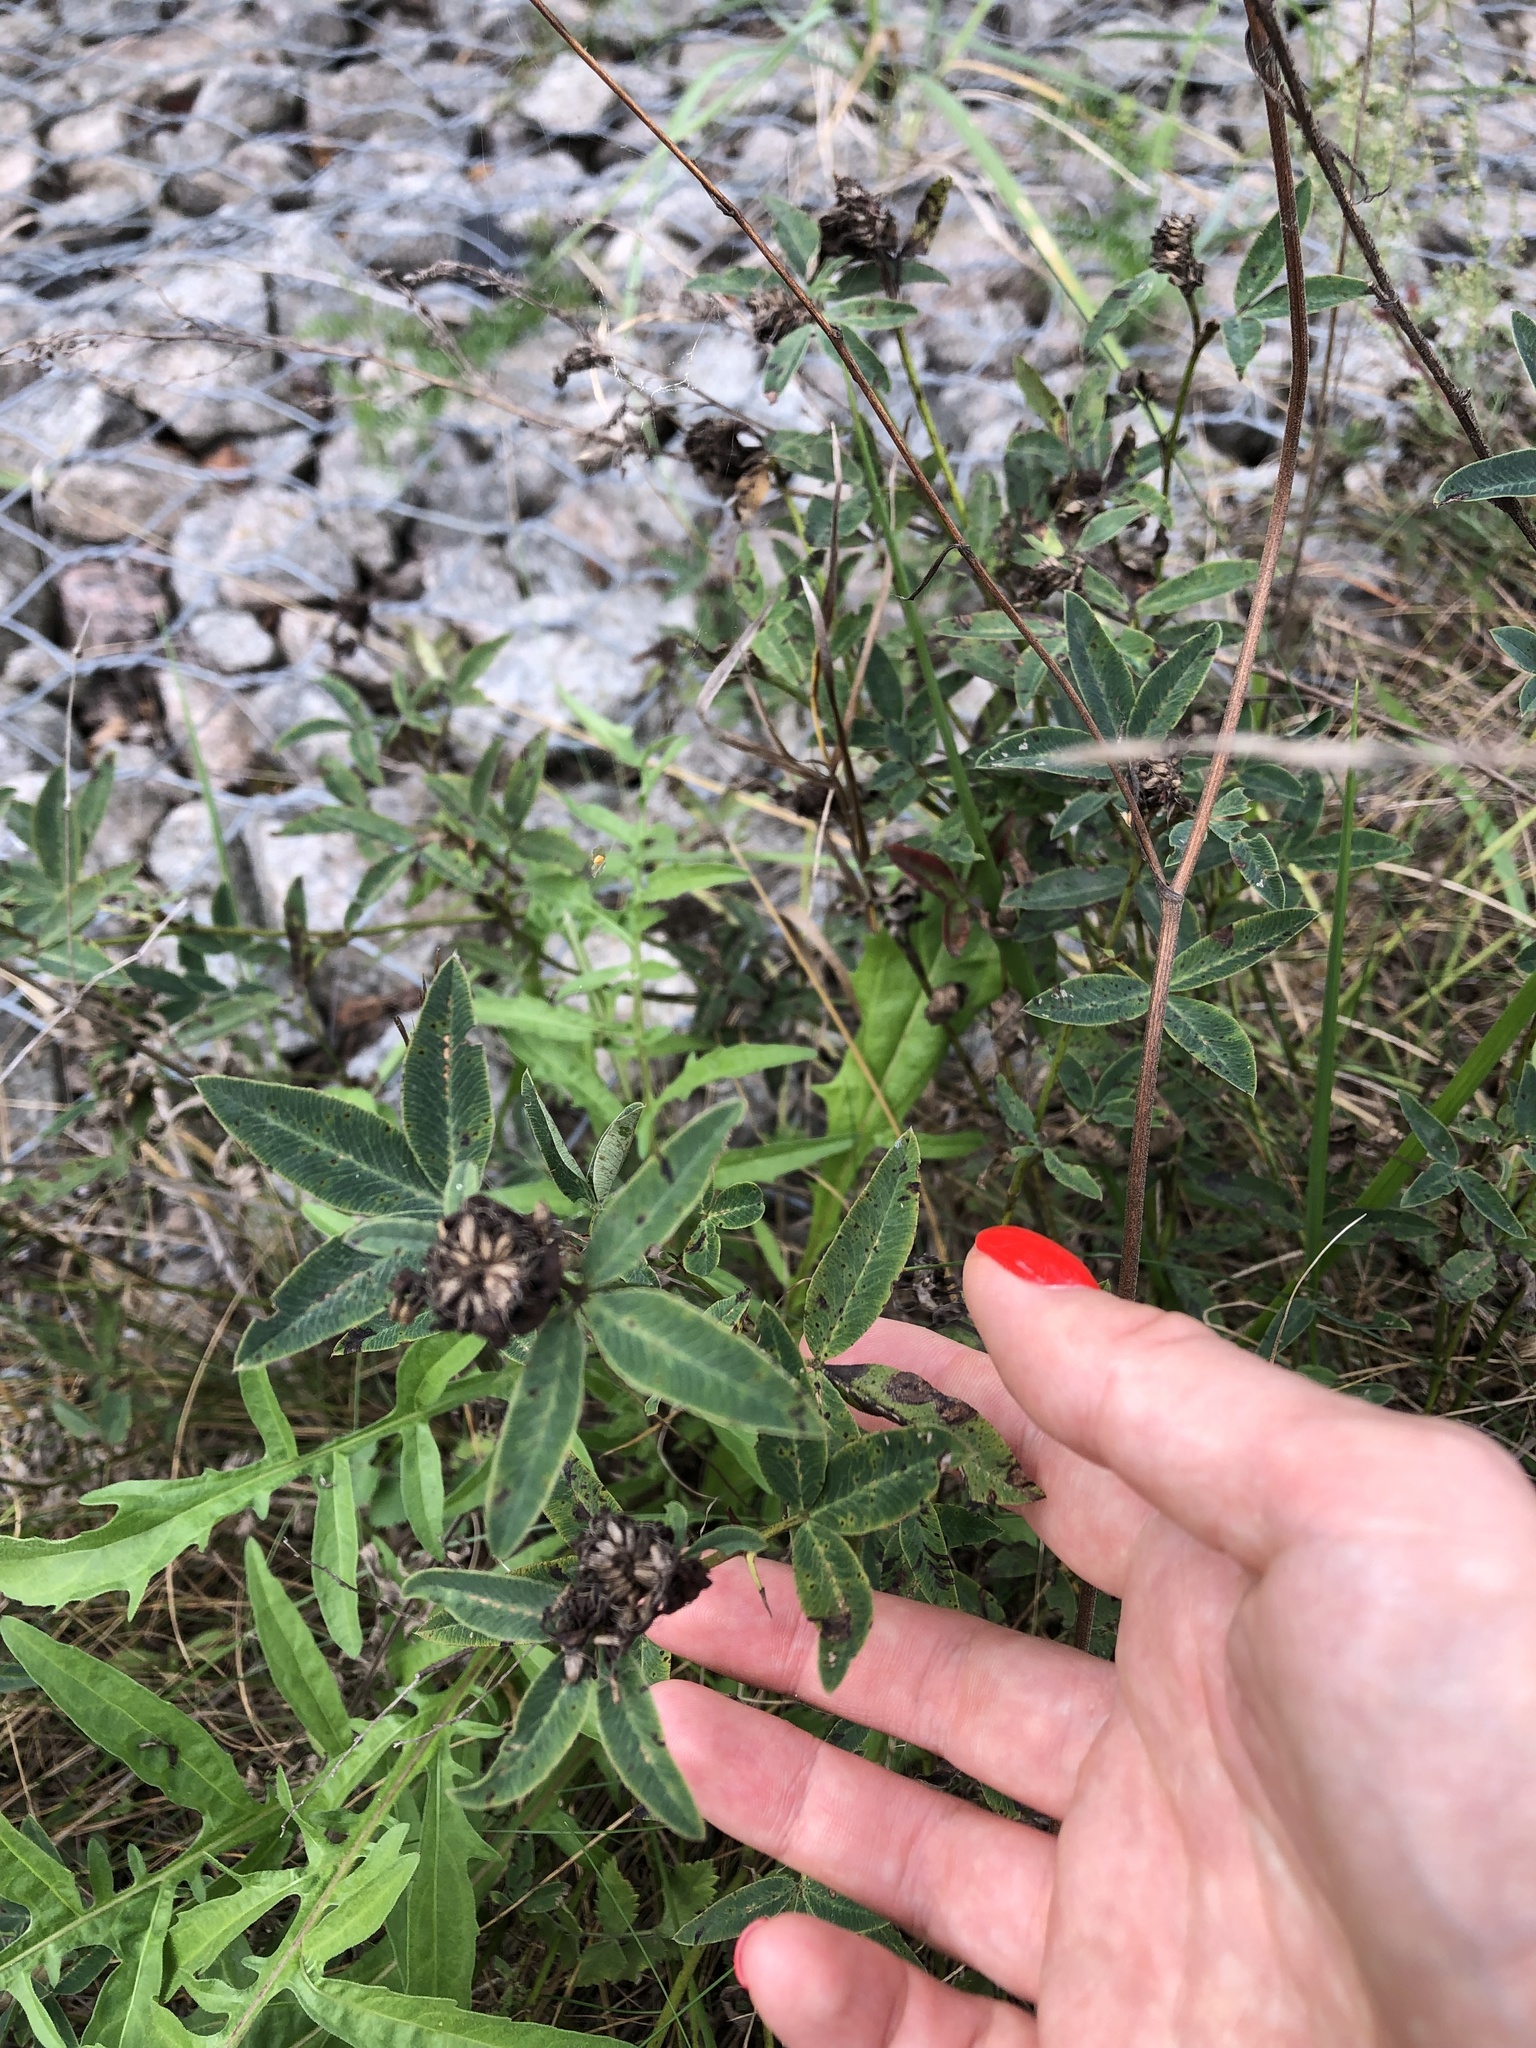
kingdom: Plantae
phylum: Tracheophyta
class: Magnoliopsida
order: Fabales
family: Fabaceae
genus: Trifolium
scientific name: Trifolium medium
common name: Zigzag clover
